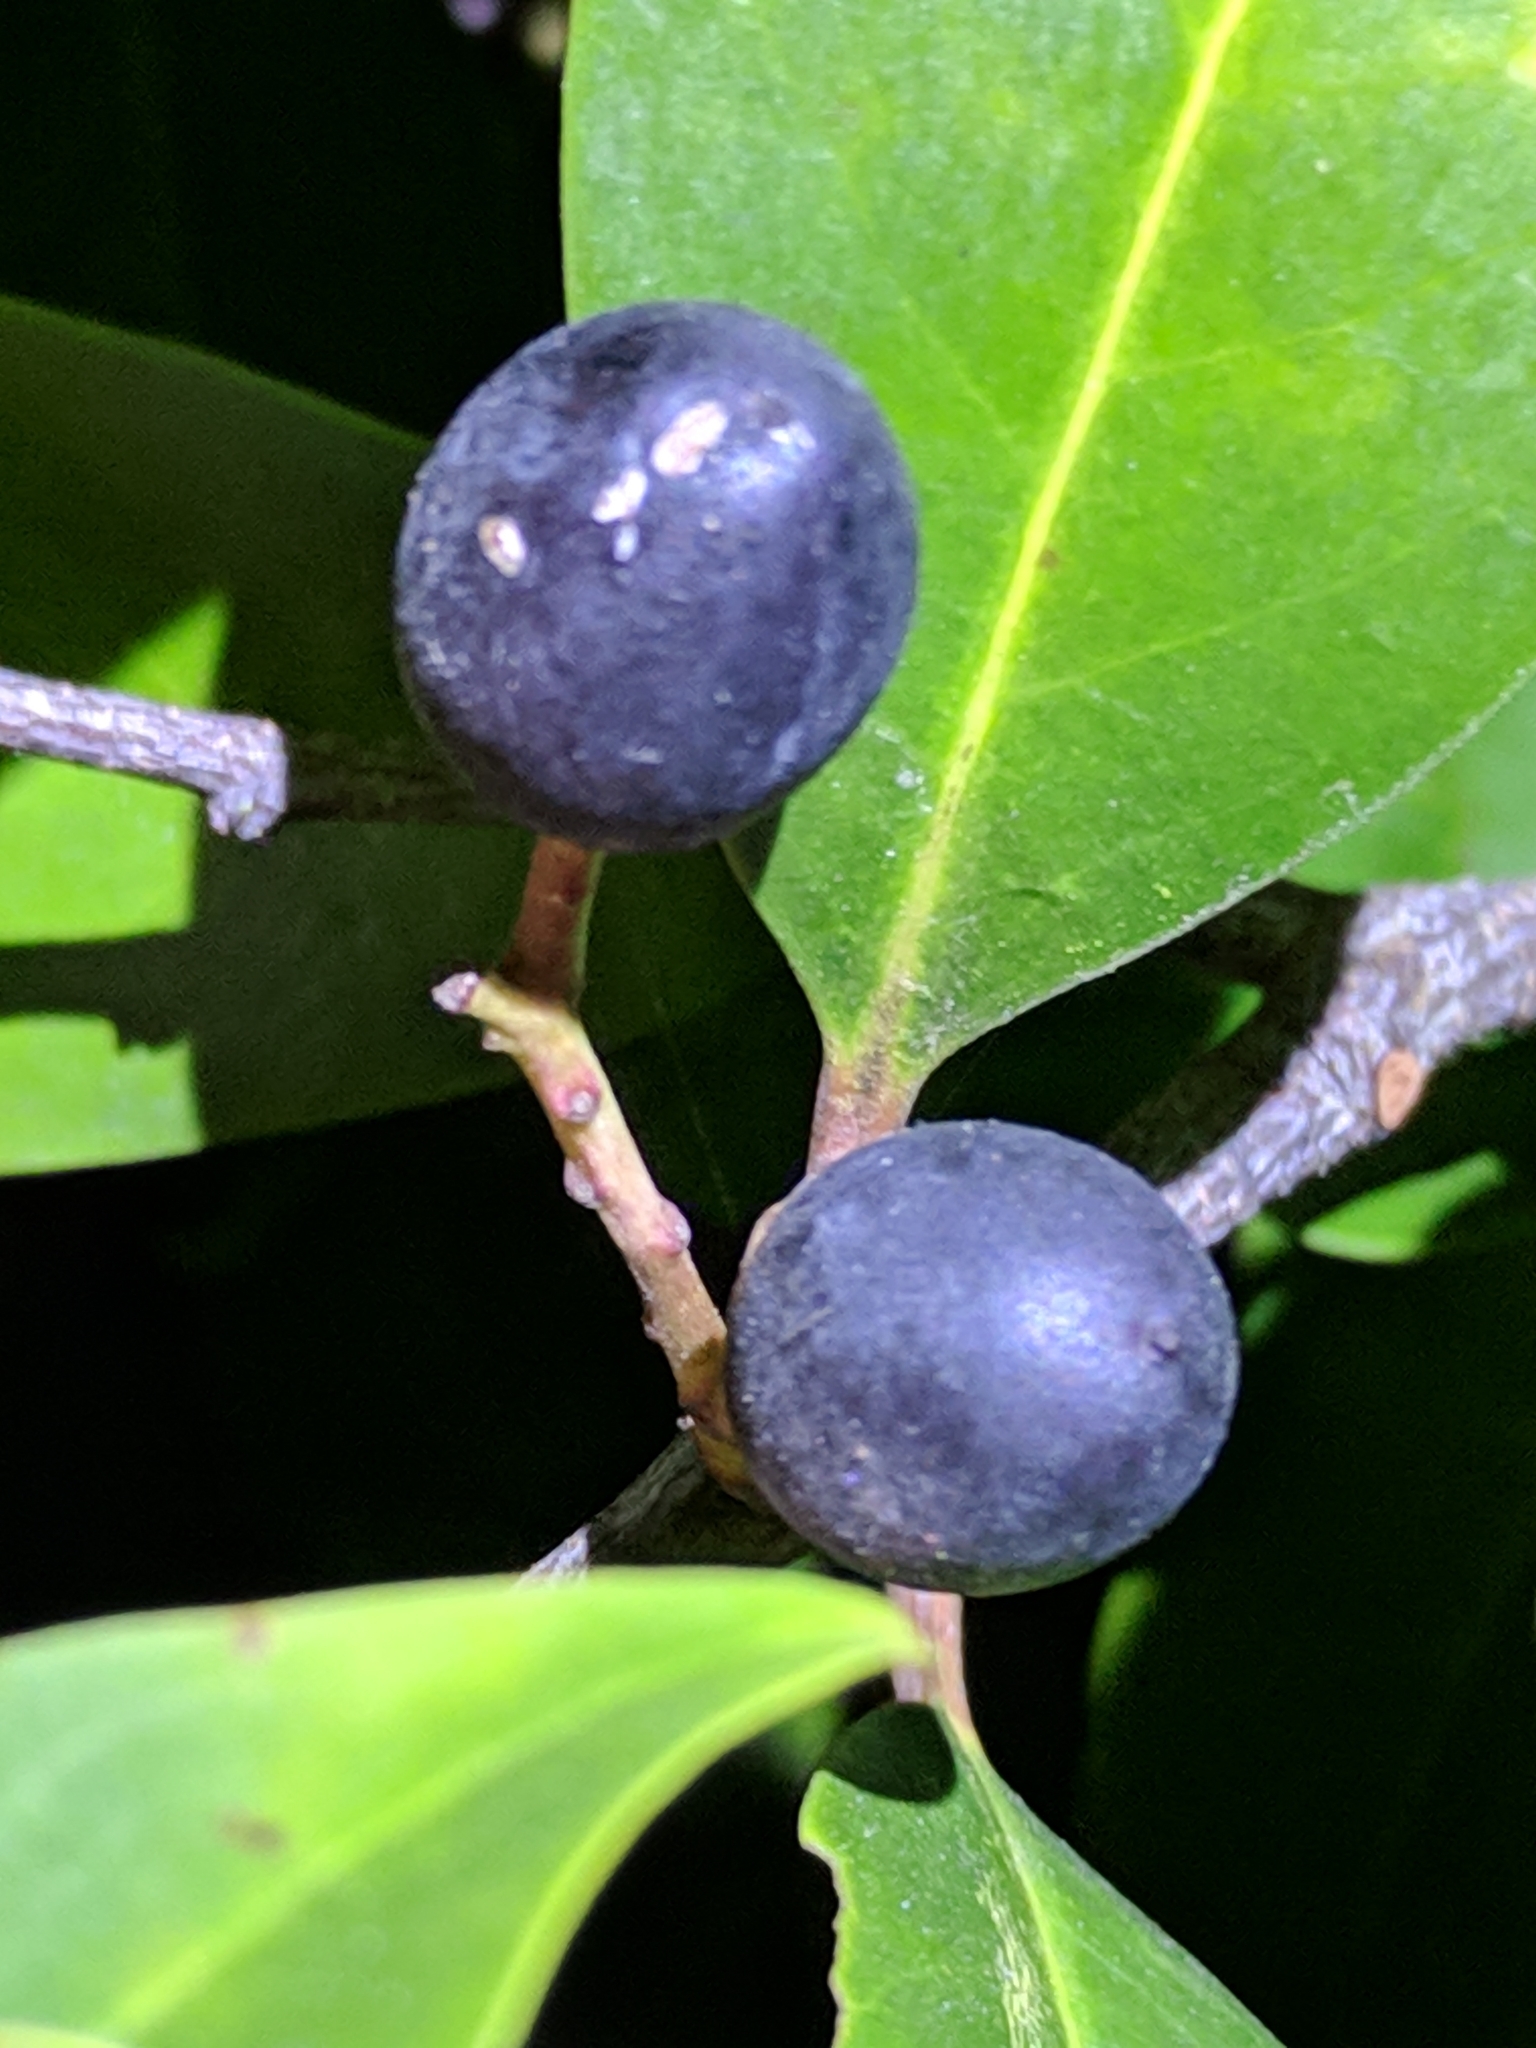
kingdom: Plantae
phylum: Tracheophyta
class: Magnoliopsida
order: Rosales
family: Rosaceae
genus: Prunus
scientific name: Prunus caroliniana
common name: Carolina laurel cherry
